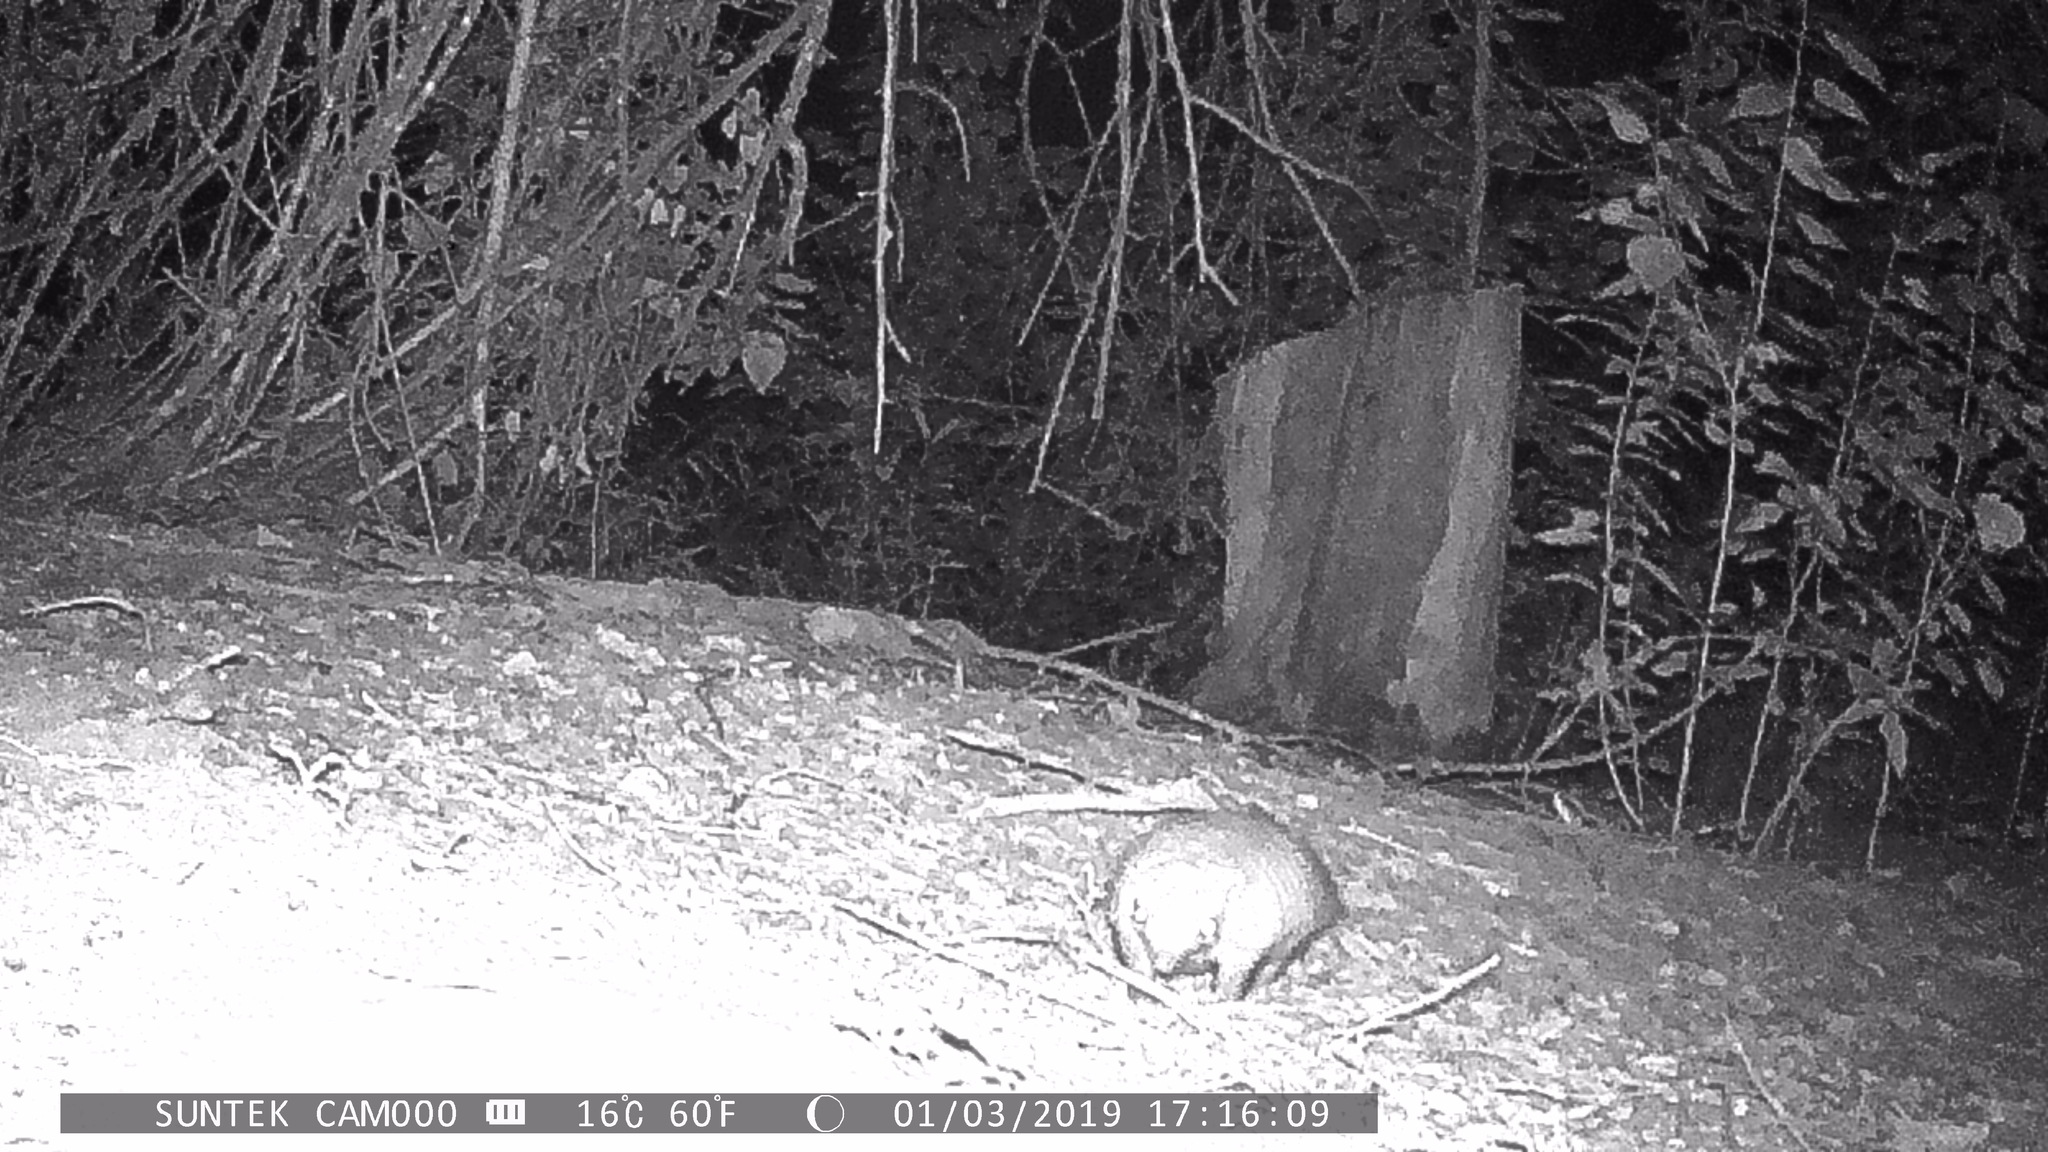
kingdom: Animalia
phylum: Chordata
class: Mammalia
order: Cingulata
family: Dasypodidae
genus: Chaetophractus
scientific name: Chaetophractus villosus
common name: Big hairy armadillo
